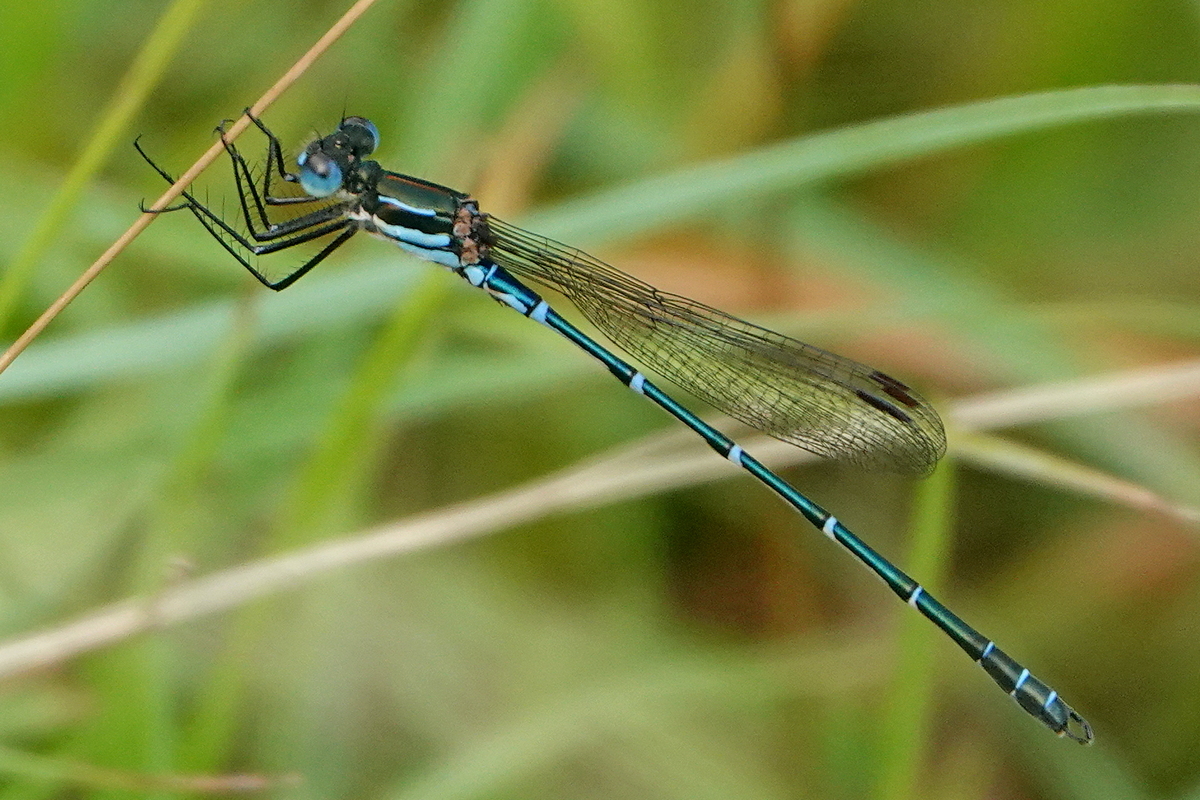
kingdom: Animalia
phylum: Arthropoda
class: Insecta
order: Odonata
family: Lestidae
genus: Austrolestes
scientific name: Austrolestes psyche
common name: Cup ringtail
